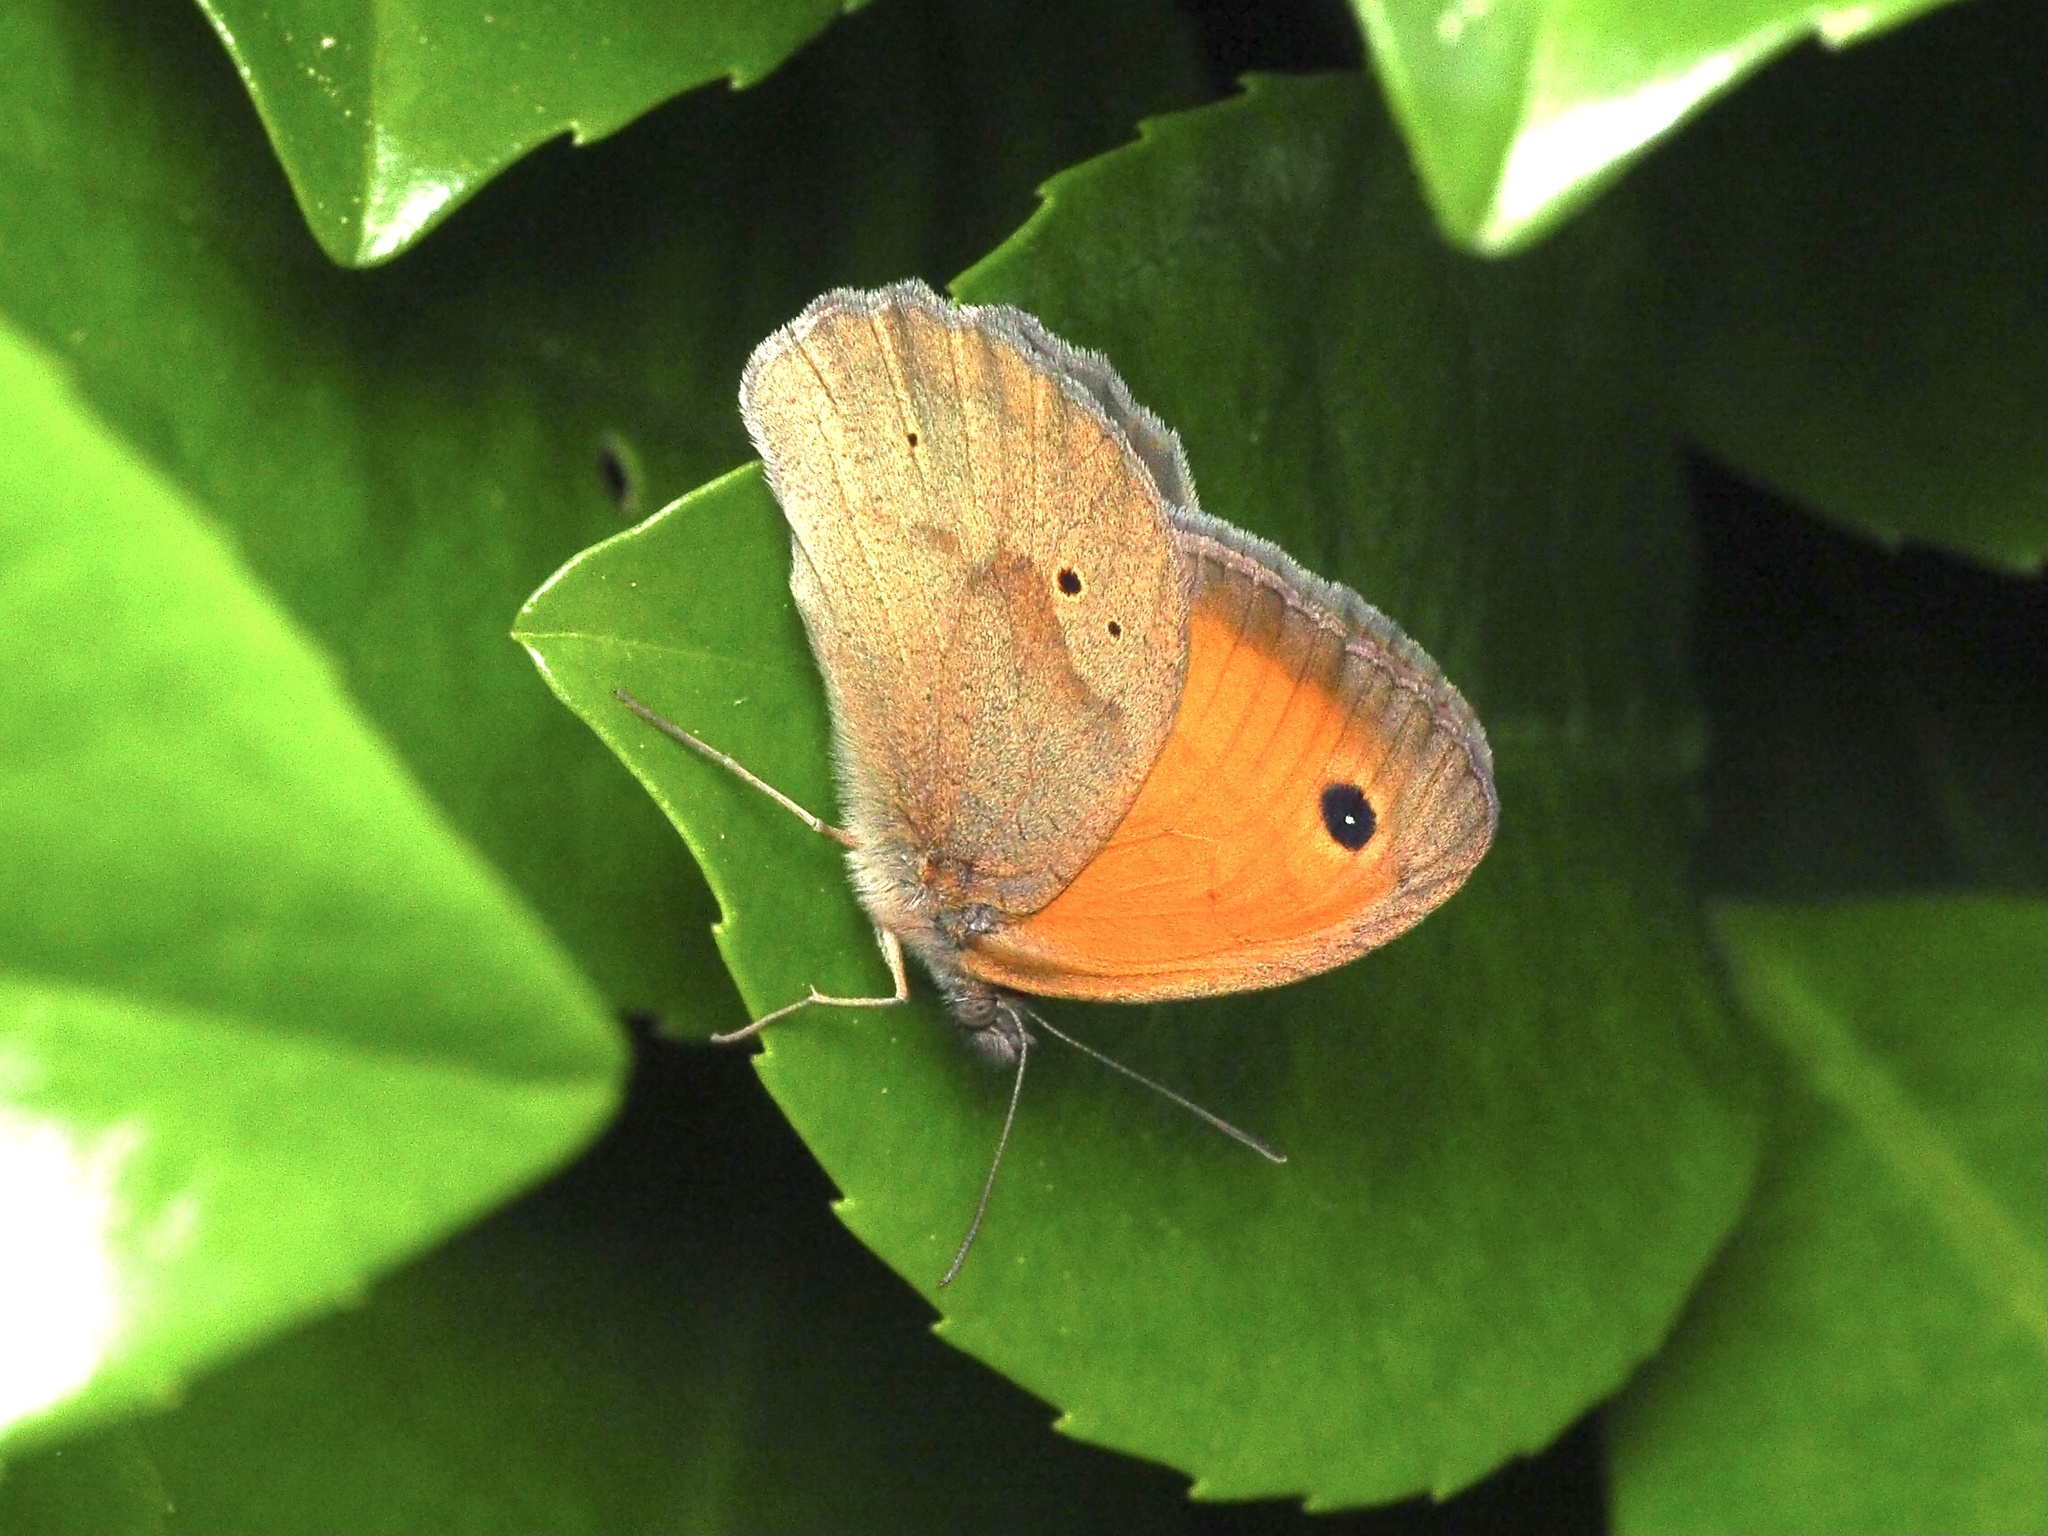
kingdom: Animalia
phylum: Arthropoda
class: Insecta
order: Lepidoptera
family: Nymphalidae
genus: Maniola
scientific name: Maniola jurtina
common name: Meadow brown
